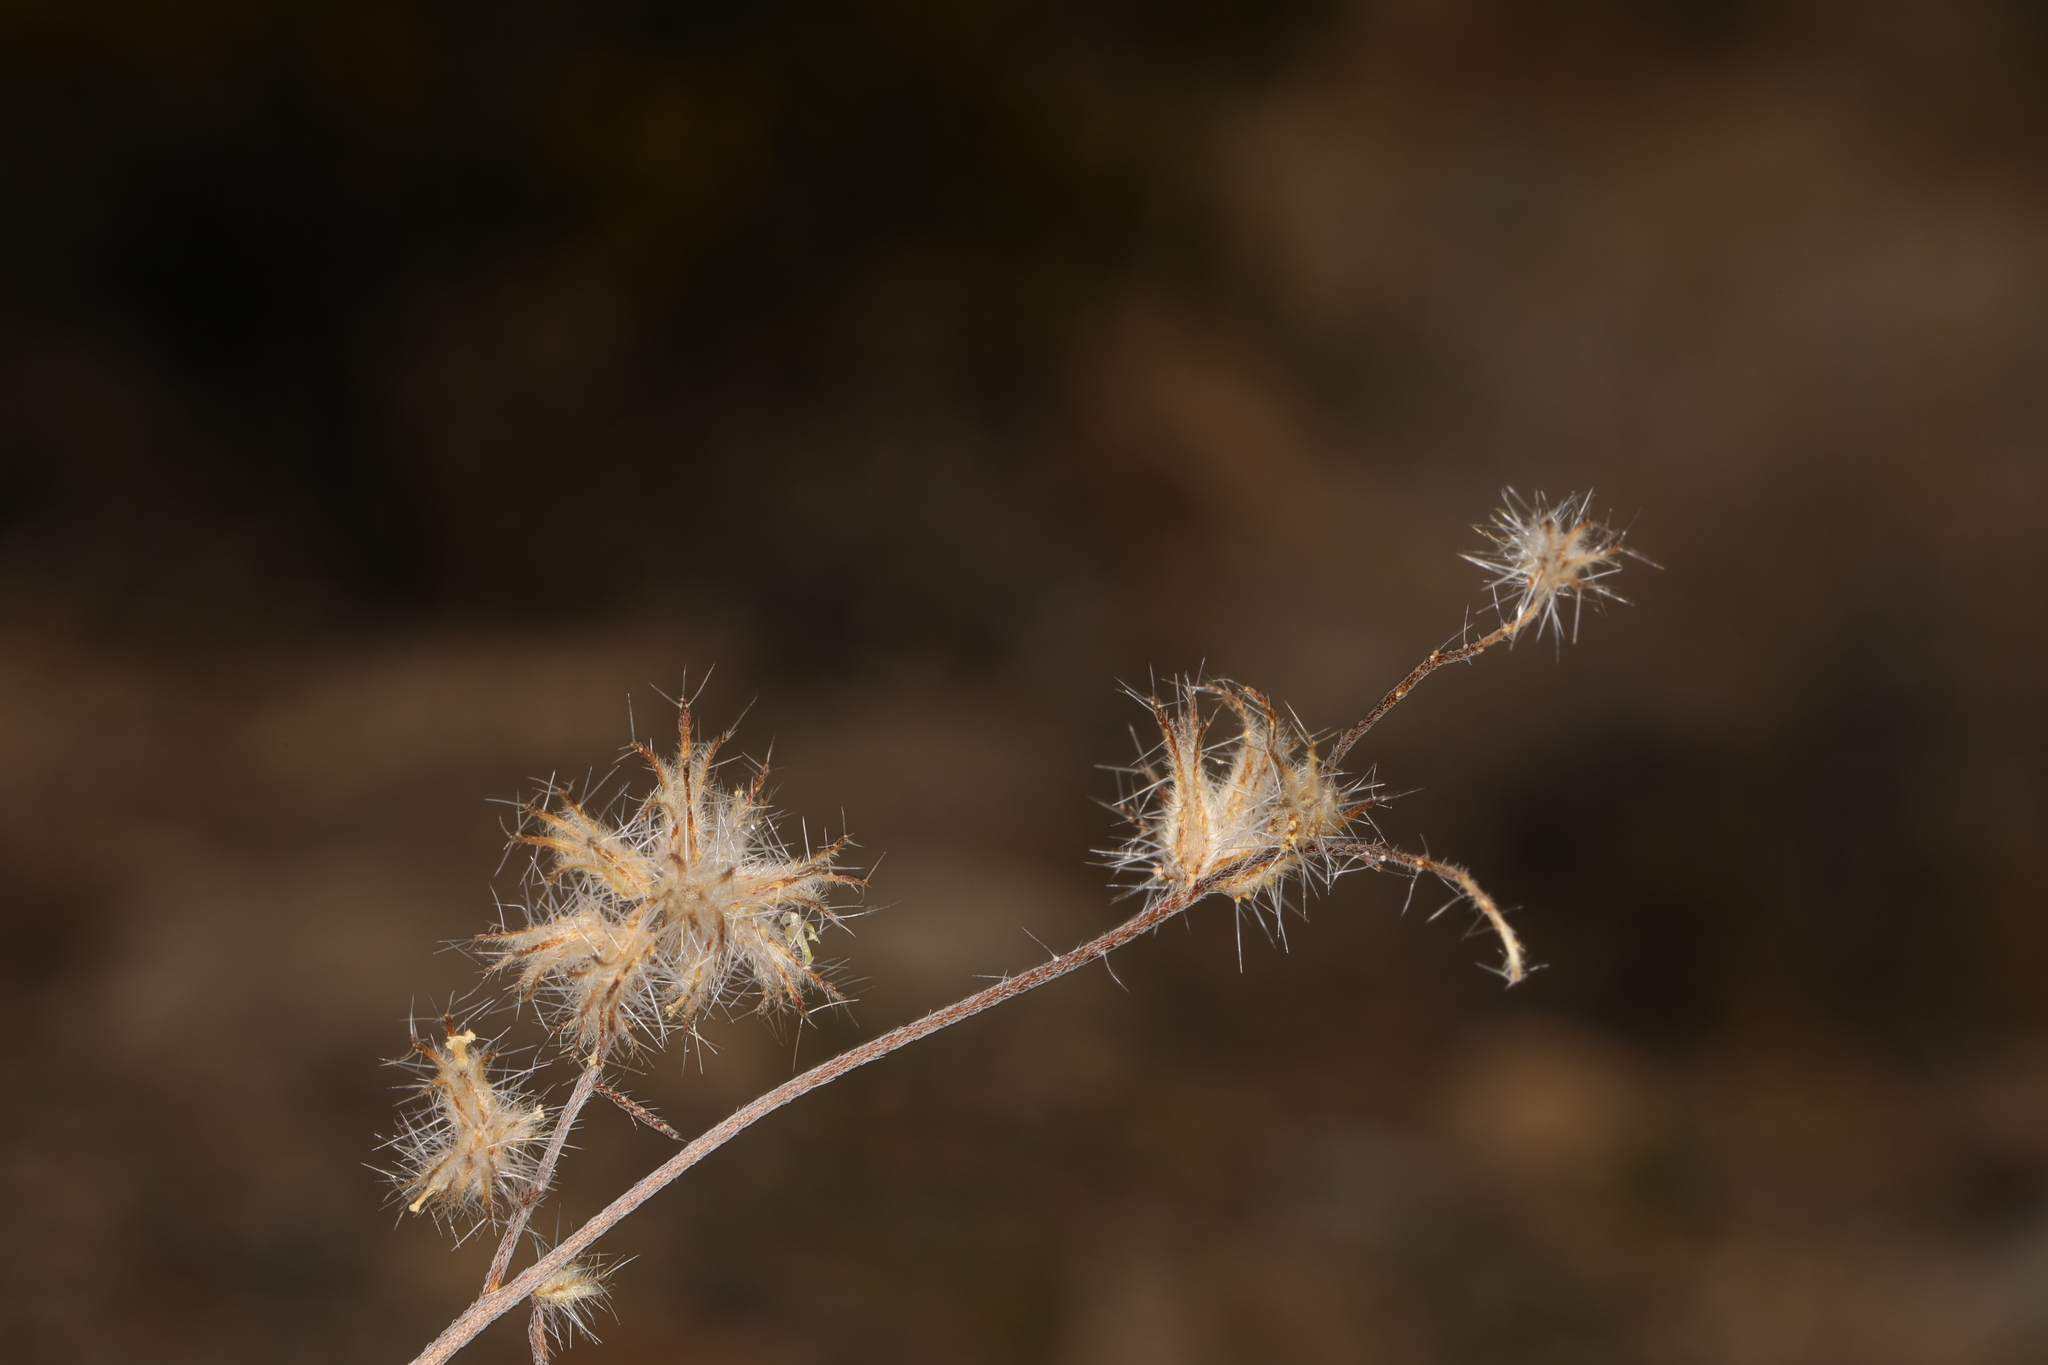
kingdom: Plantae
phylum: Tracheophyta
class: Magnoliopsida
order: Boraginales
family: Boraginaceae
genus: Cryptantha
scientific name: Cryptantha nevadensis
